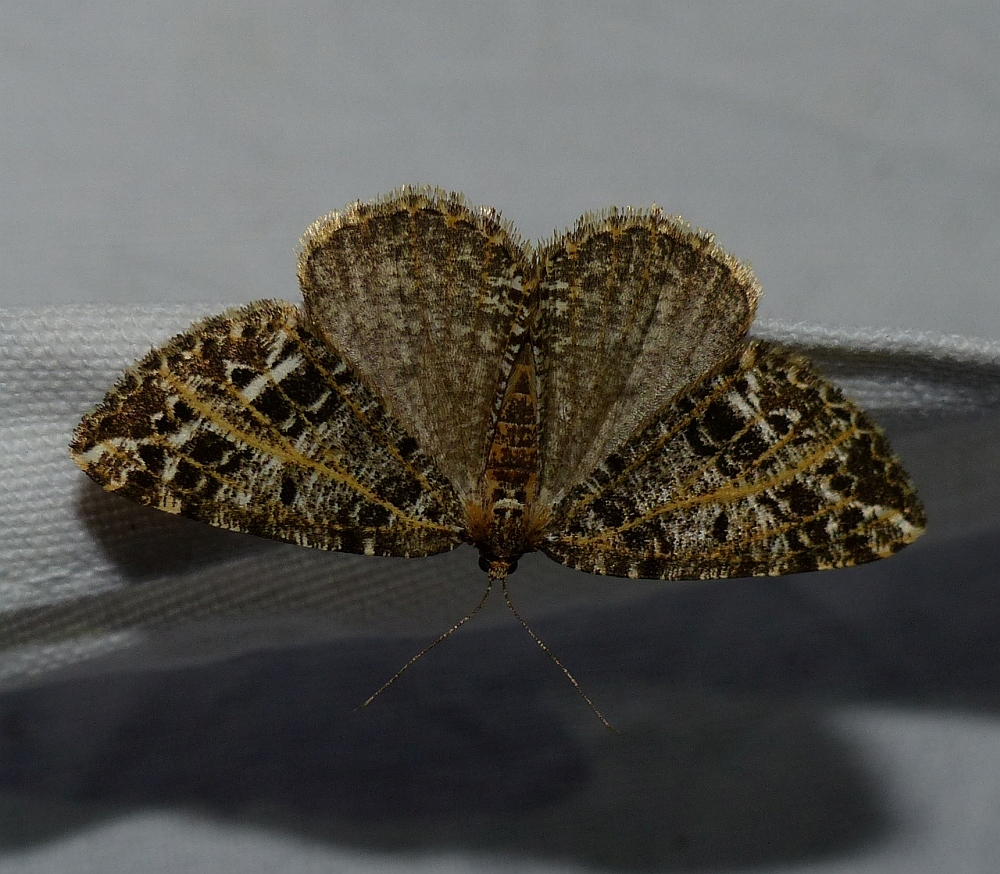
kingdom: Animalia
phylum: Arthropoda
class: Insecta
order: Lepidoptera
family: Geometridae
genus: Orthofidonia
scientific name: Orthofidonia flavivenata
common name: Yellow-veined geometer moth
